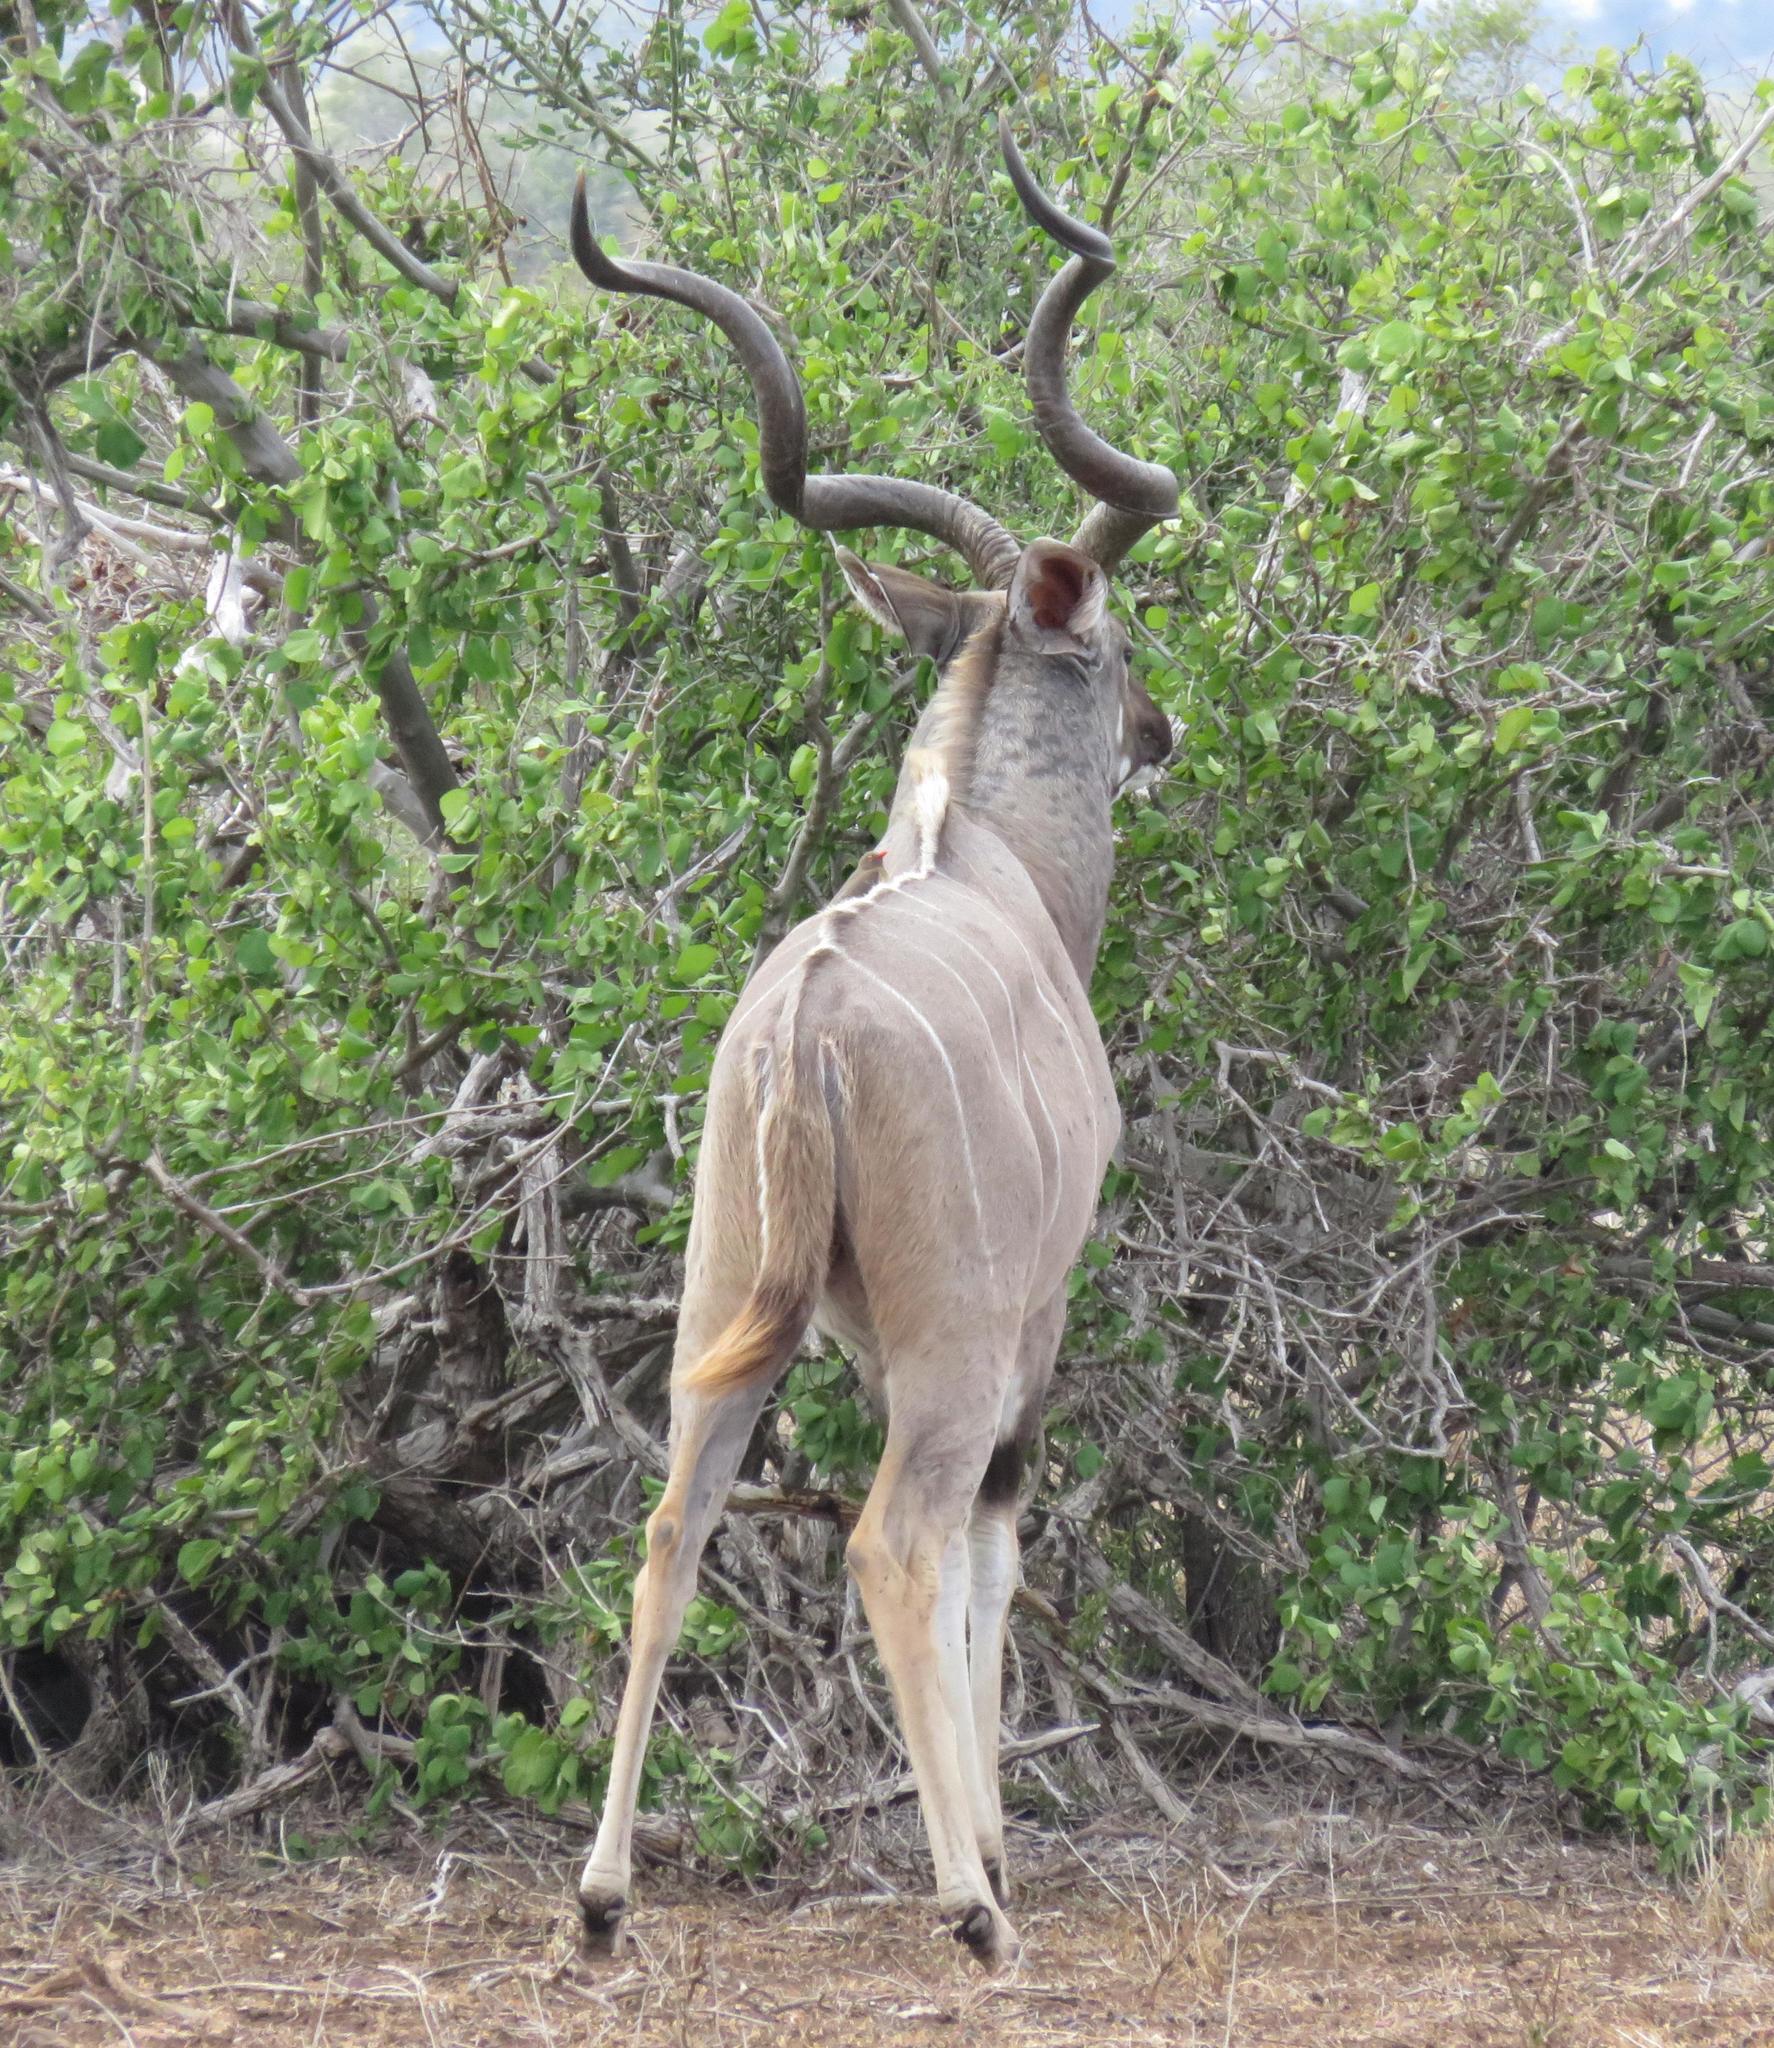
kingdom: Animalia
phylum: Chordata
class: Mammalia
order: Artiodactyla
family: Bovidae
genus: Tragelaphus
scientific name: Tragelaphus strepsiceros
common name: Greater kudu
